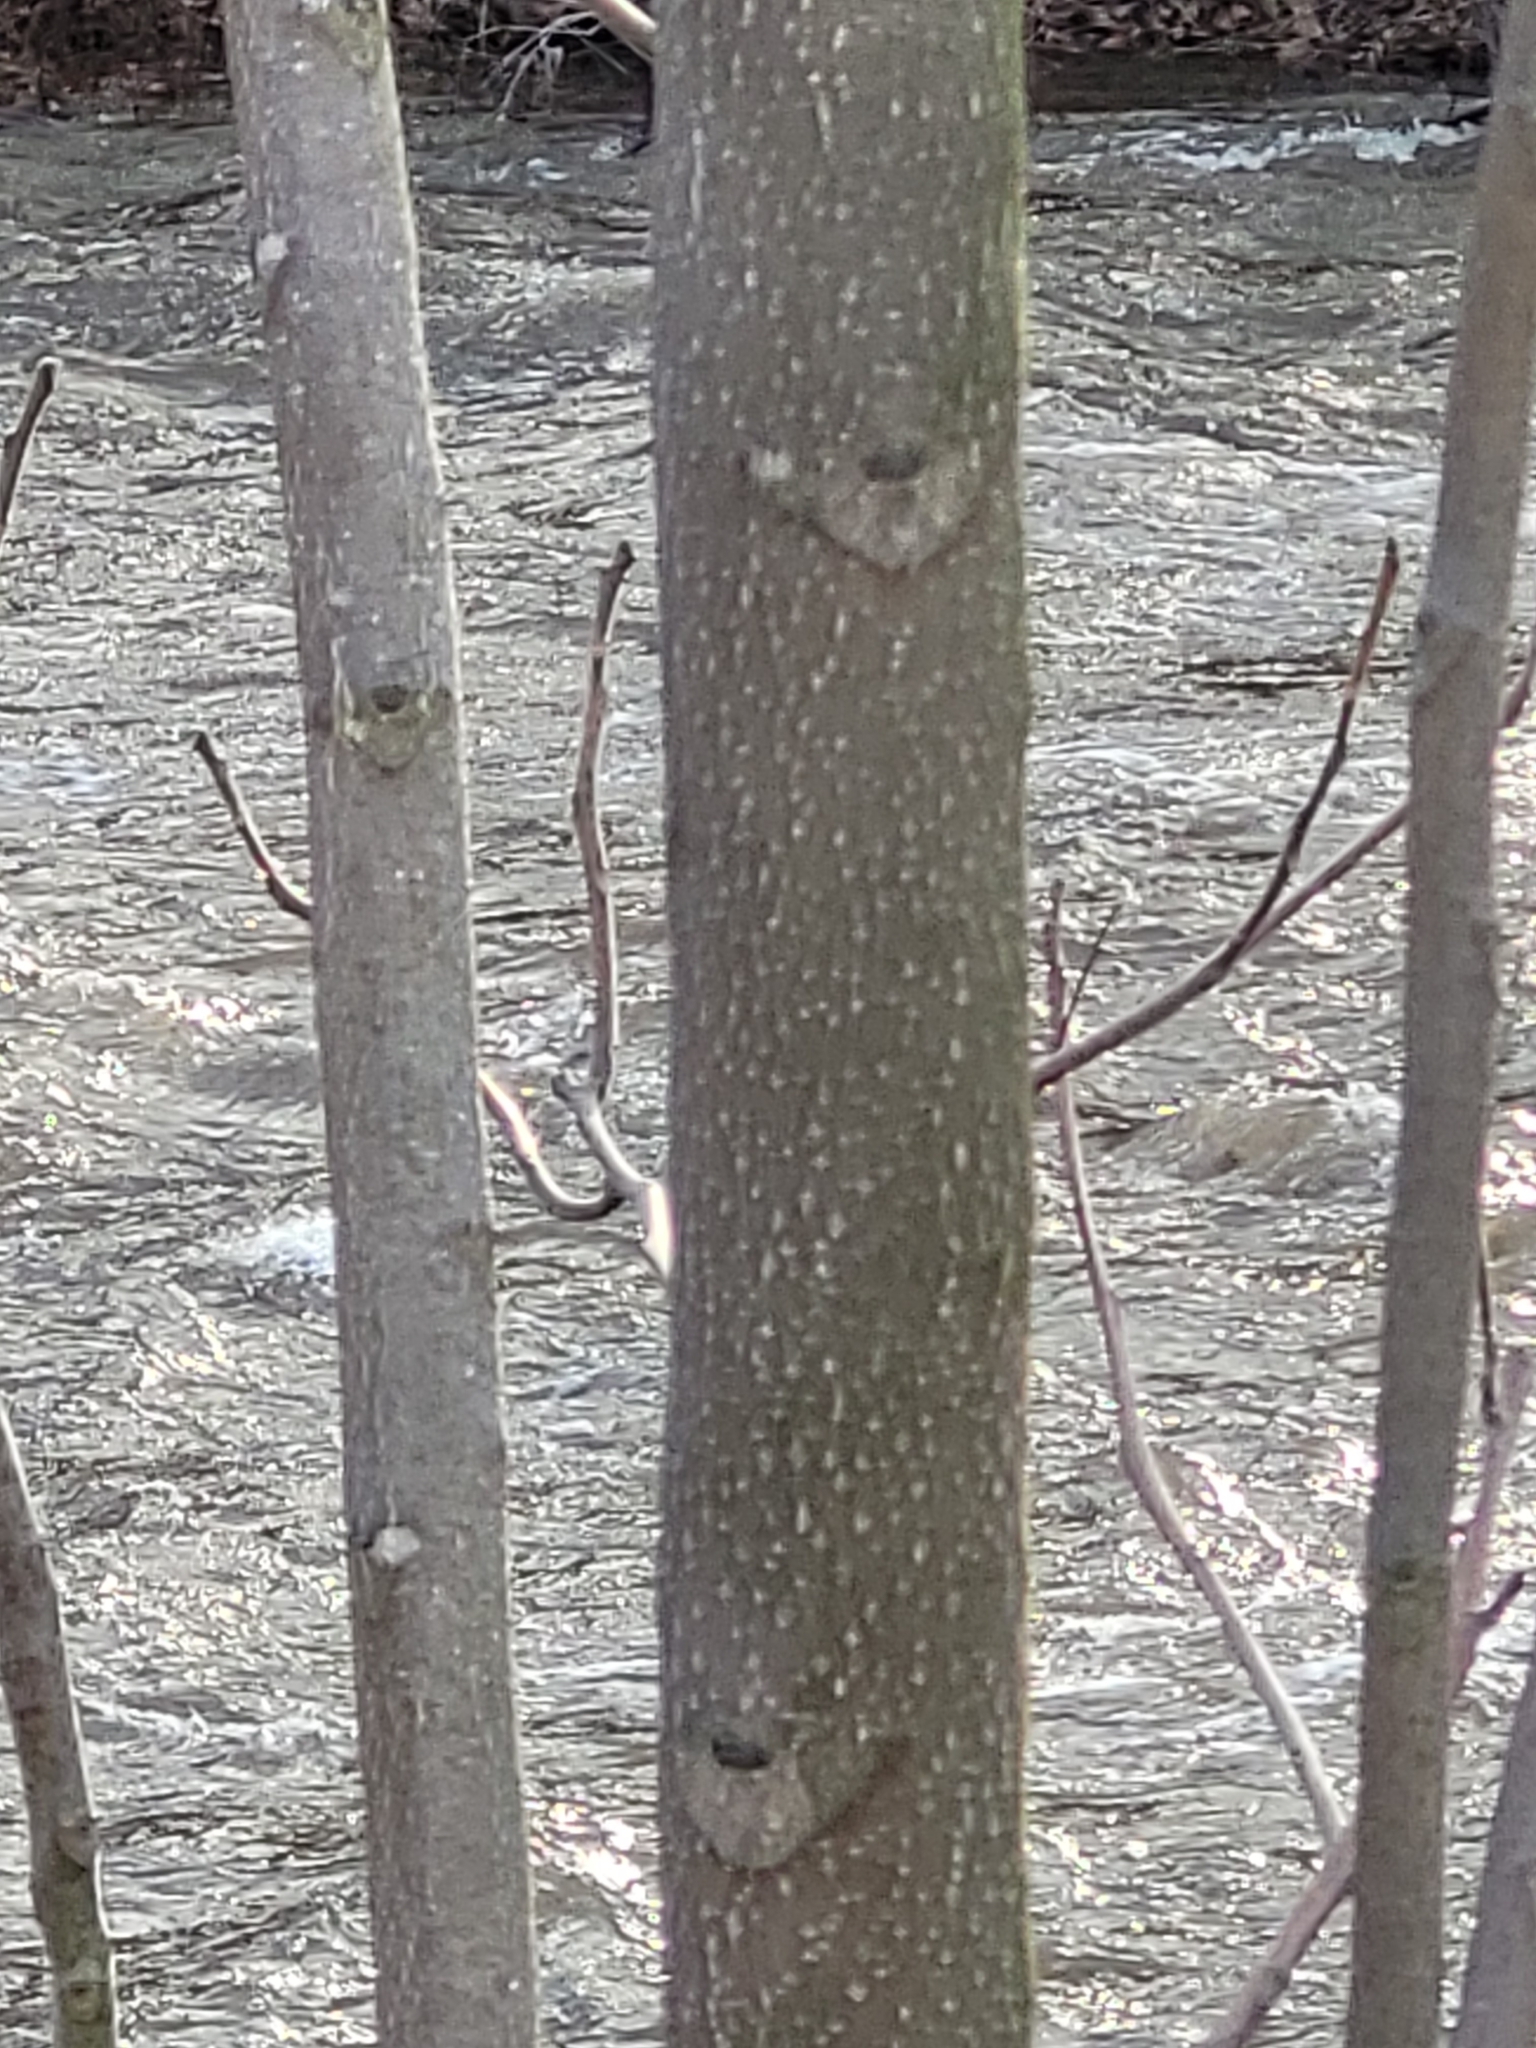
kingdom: Plantae
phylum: Tracheophyta
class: Magnoliopsida
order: Sapindales
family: Simaroubaceae
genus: Ailanthus
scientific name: Ailanthus altissima
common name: Tree-of-heaven
